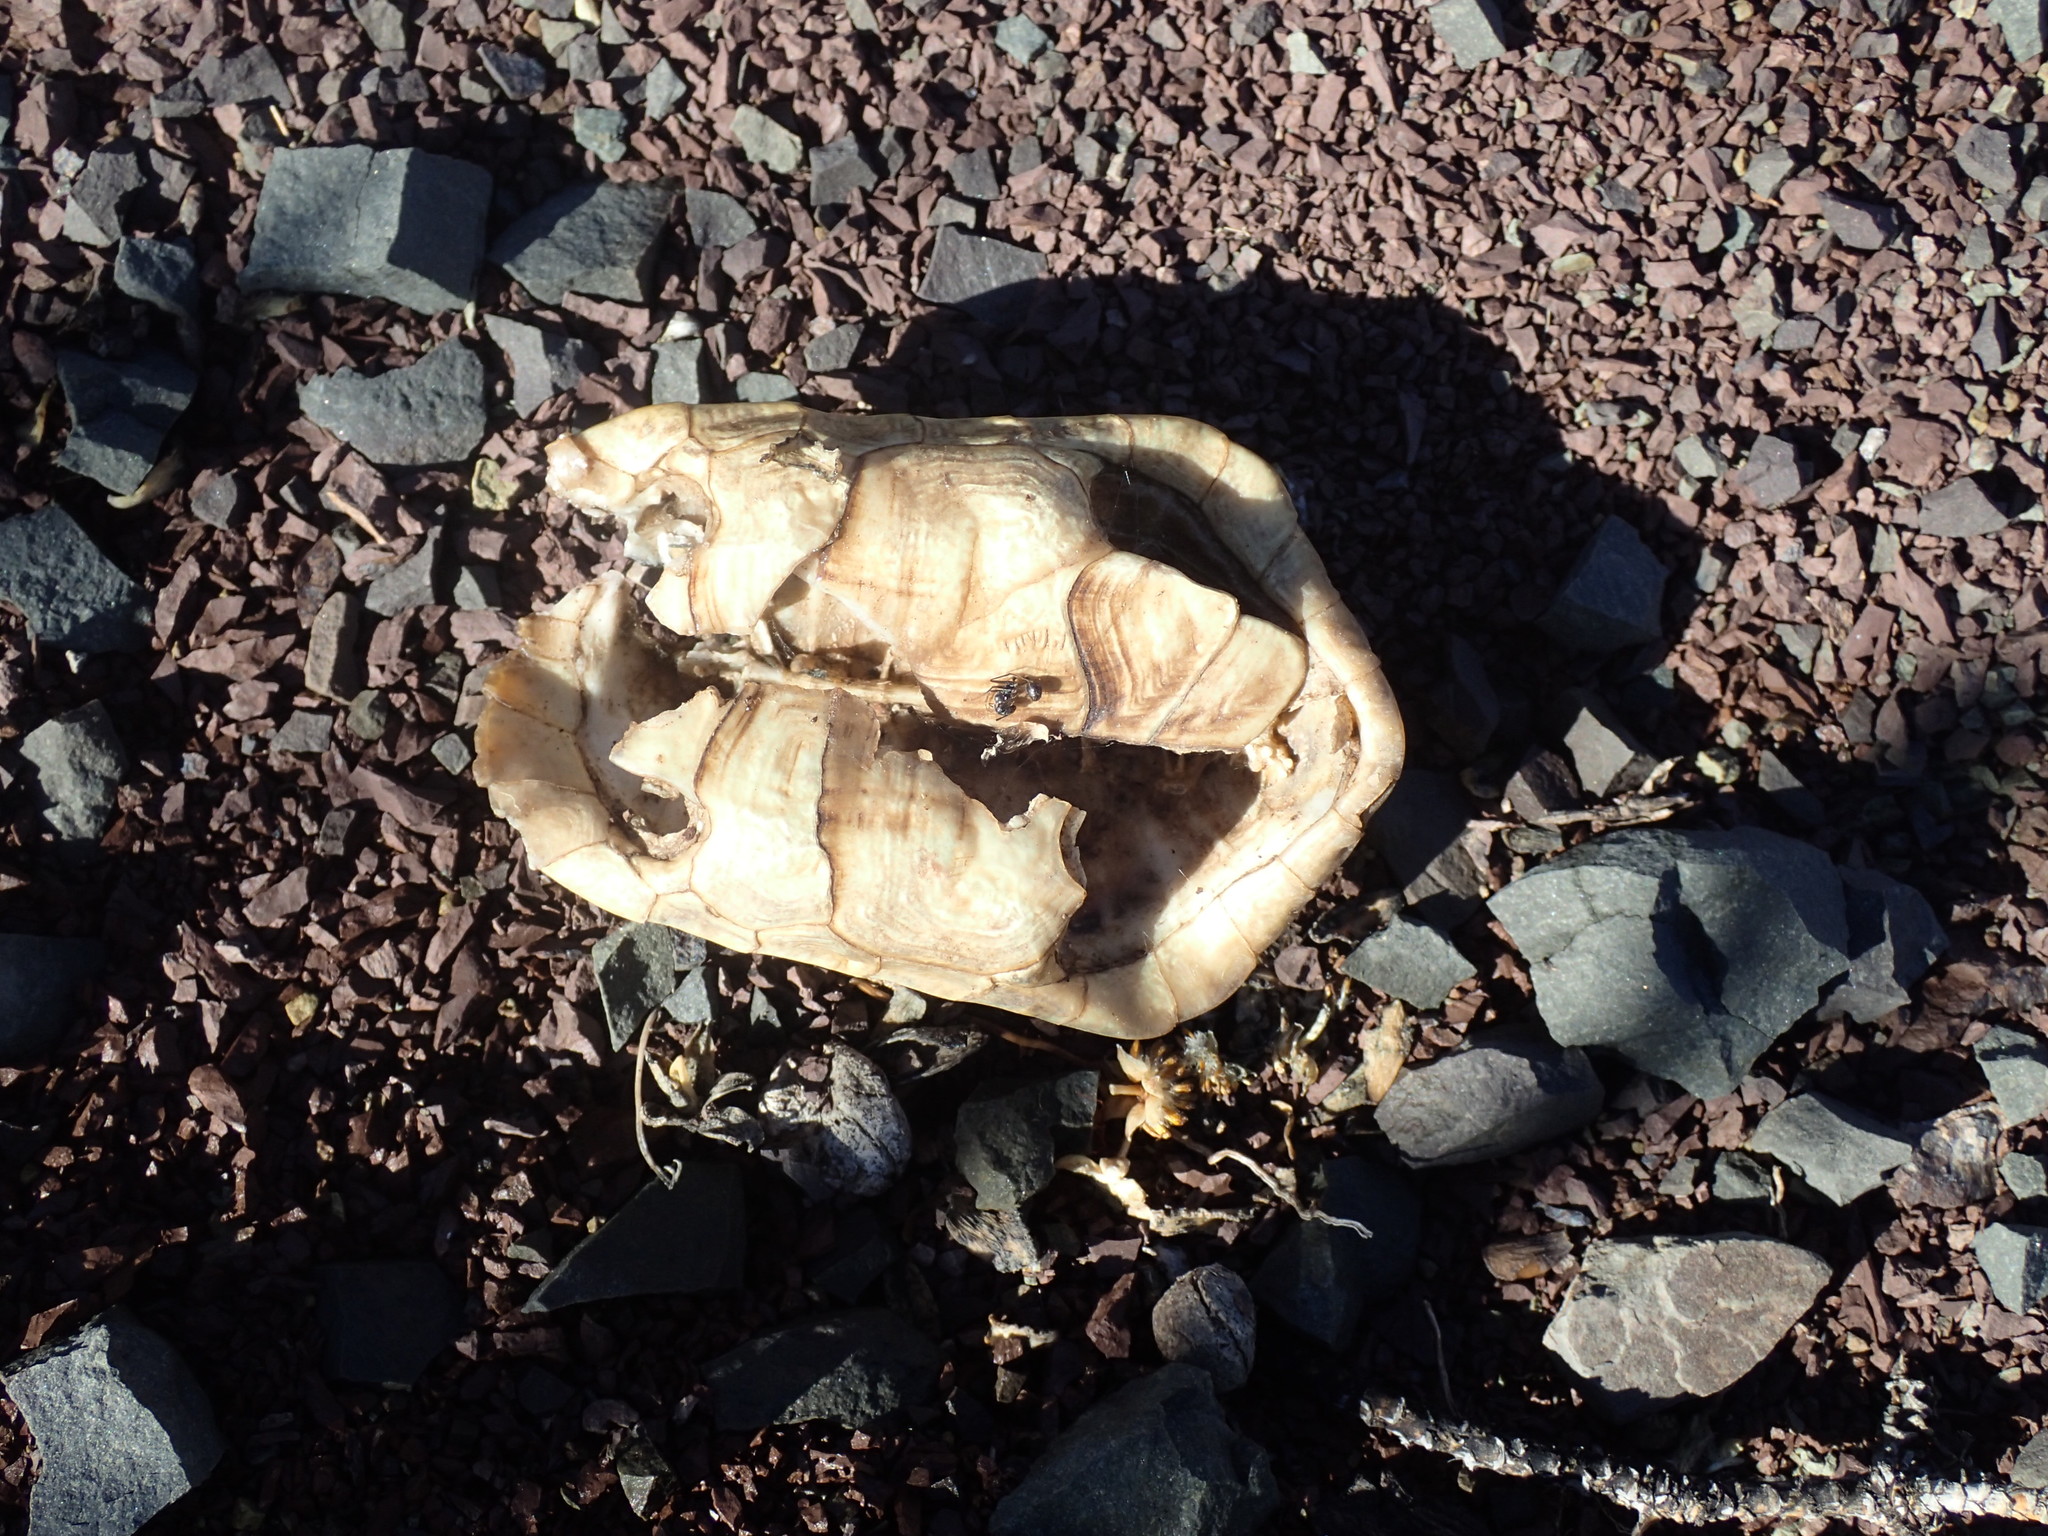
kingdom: Animalia
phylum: Chordata
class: Testudines
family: Testudinidae
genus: Homopus
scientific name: Homopus areolatus
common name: Parrot-beaked tortoise
